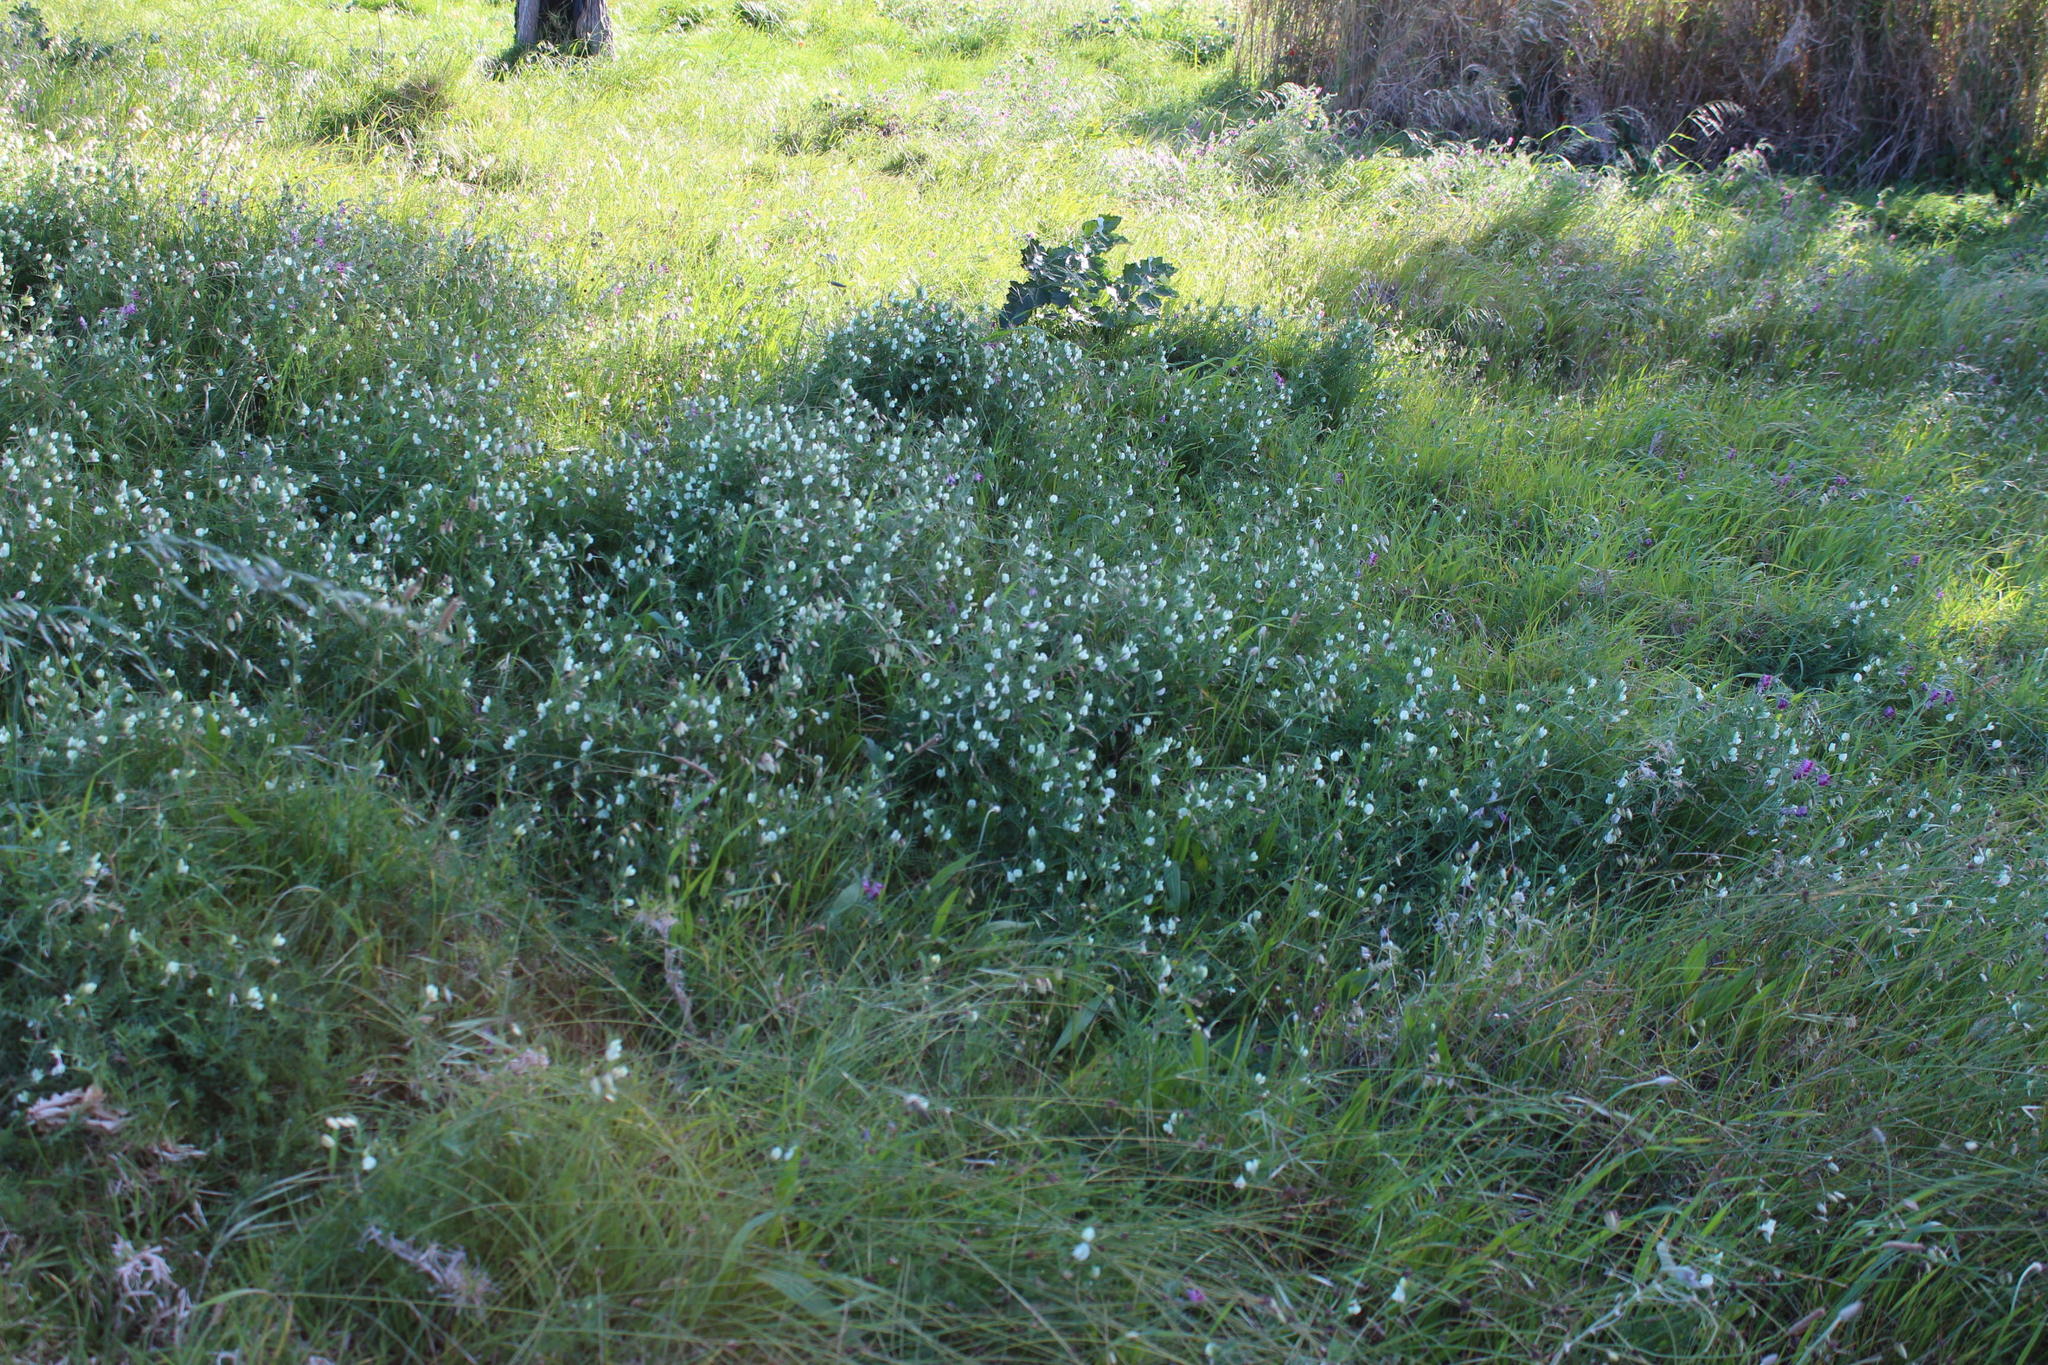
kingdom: Plantae
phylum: Tracheophyta
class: Magnoliopsida
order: Fabales
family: Fabaceae
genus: Vicia
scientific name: Vicia lutea
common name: Smooth yellow vetch
